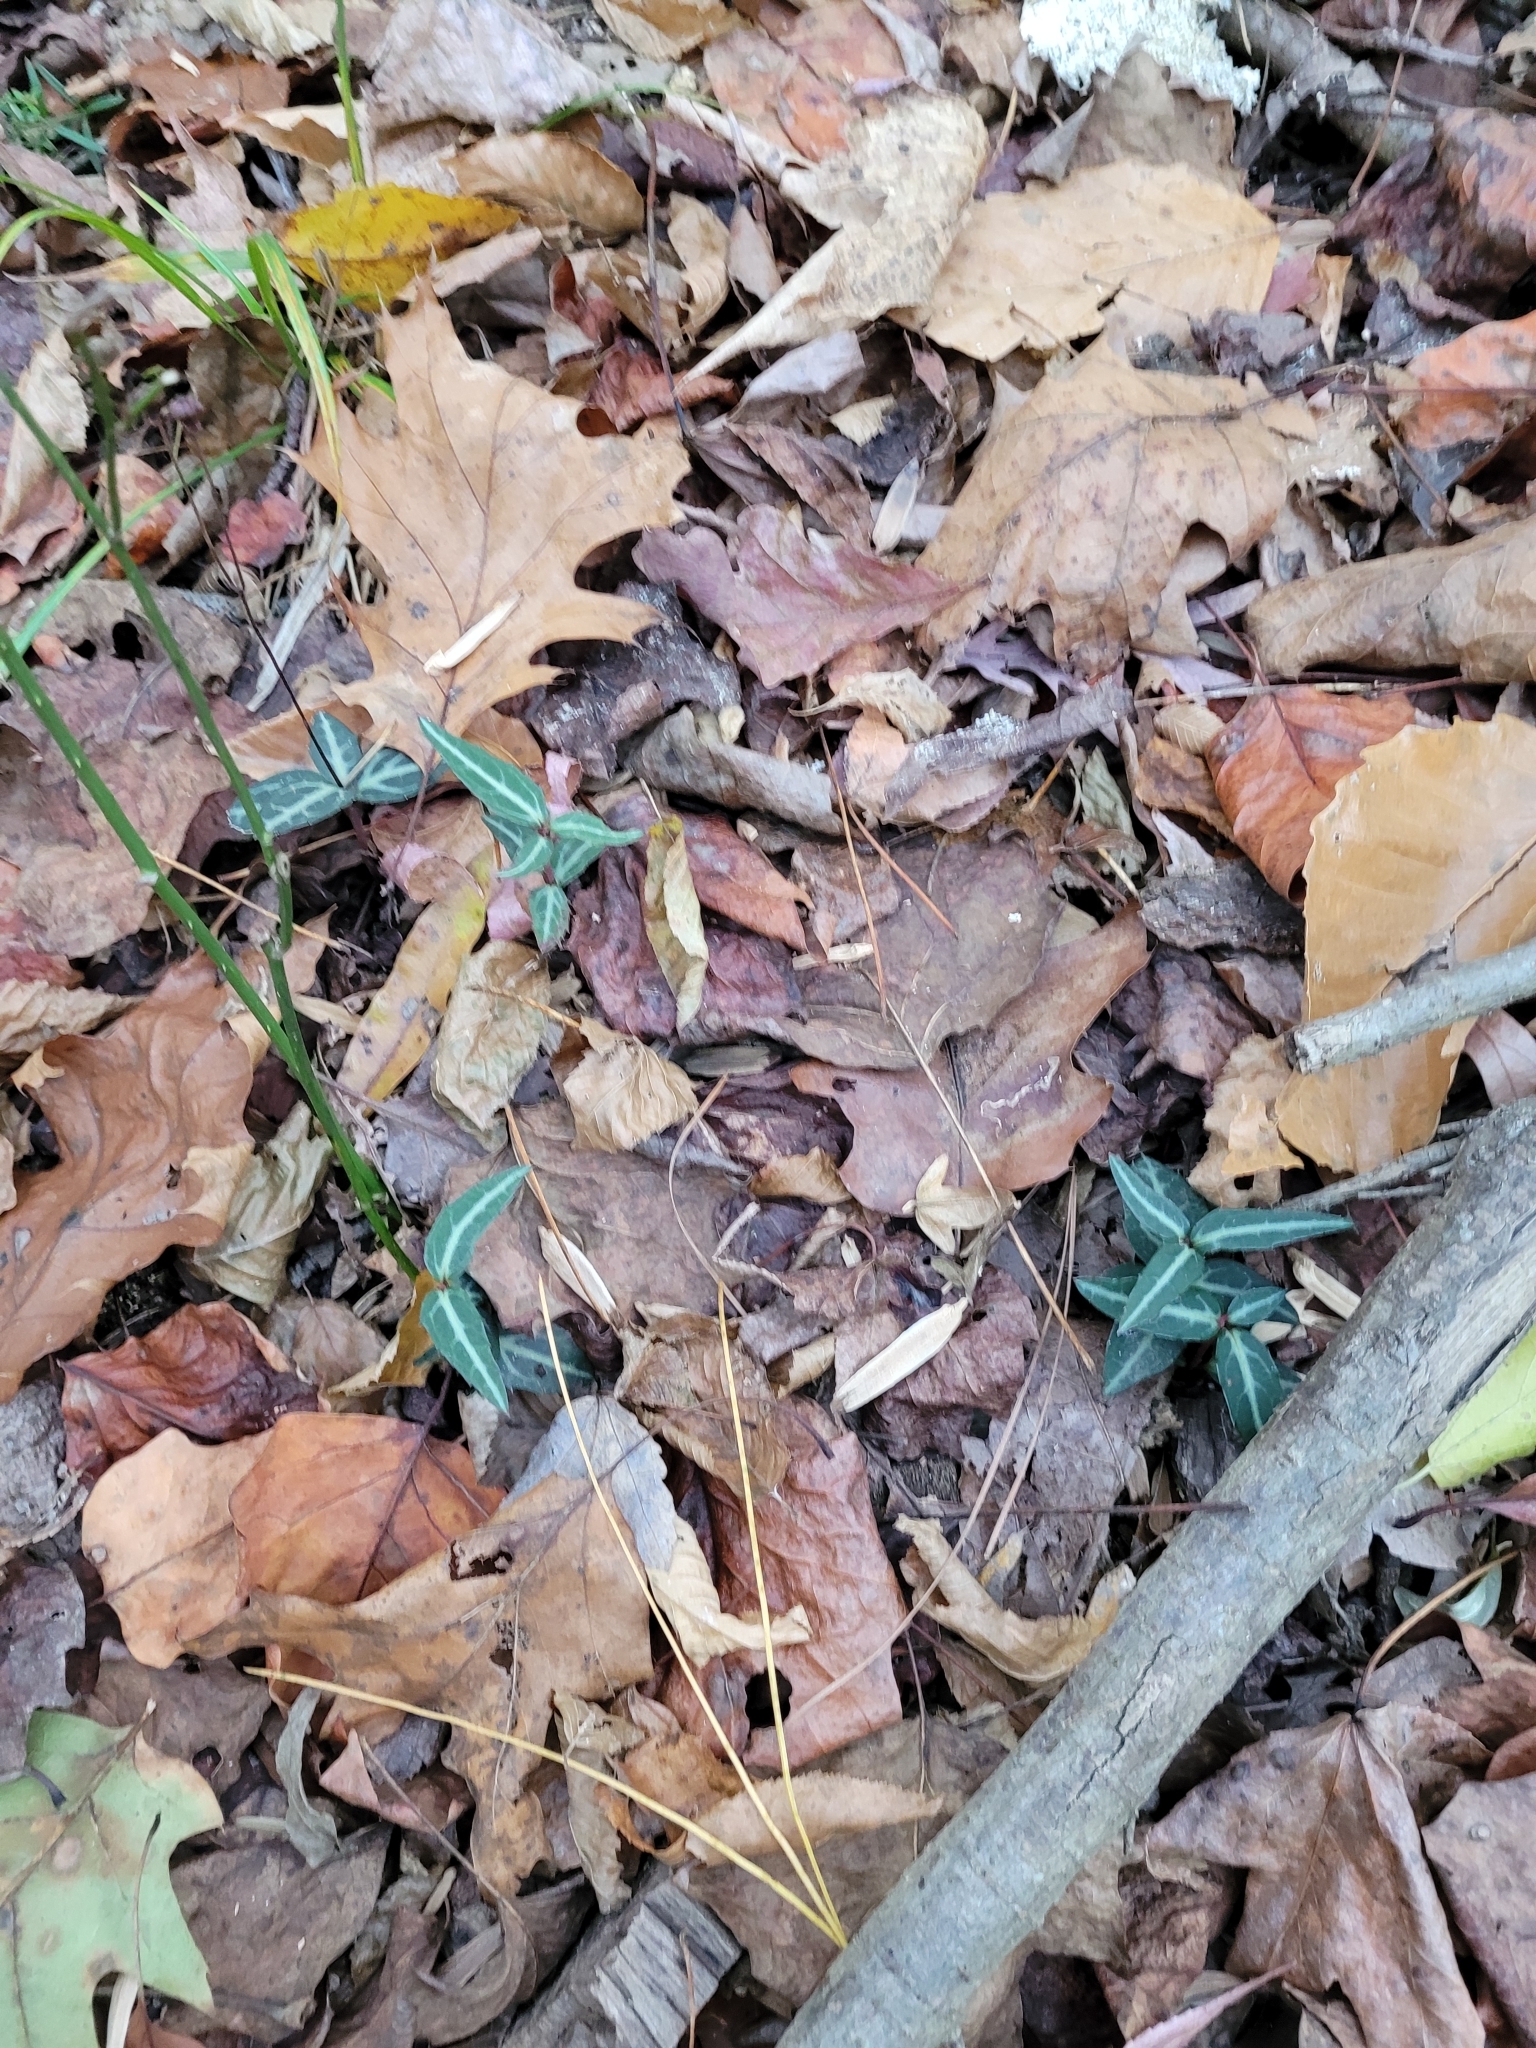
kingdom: Plantae
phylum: Tracheophyta
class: Magnoliopsida
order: Ericales
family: Ericaceae
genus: Chimaphila
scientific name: Chimaphila maculata
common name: Spotted pipsissewa
